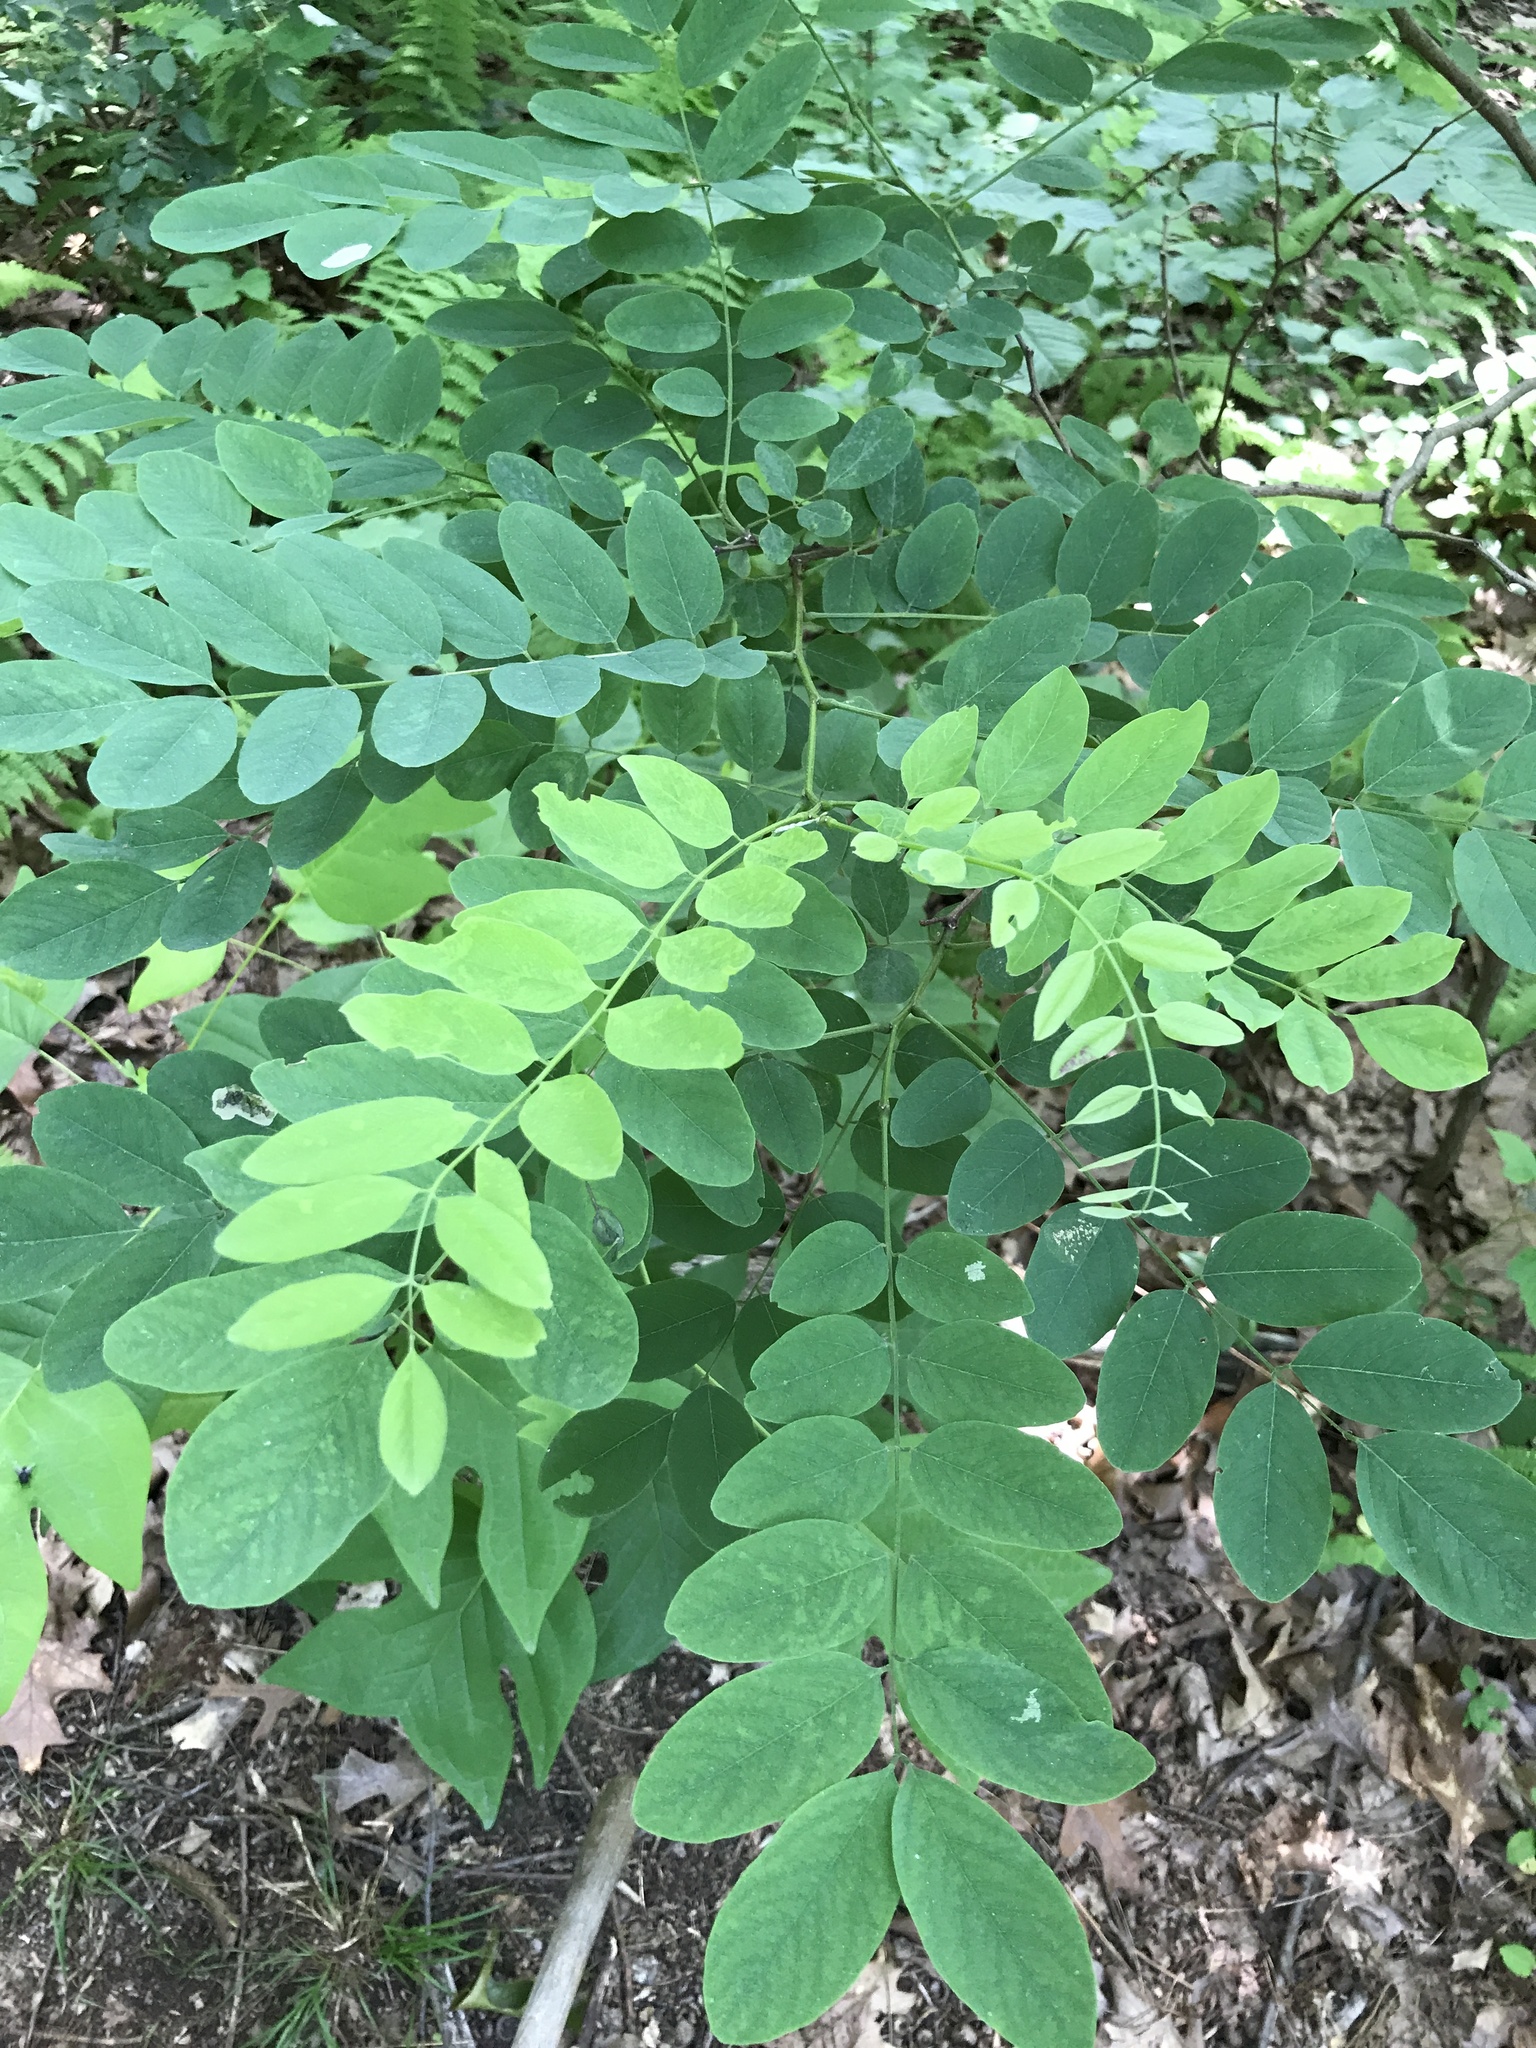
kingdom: Plantae
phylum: Tracheophyta
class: Magnoliopsida
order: Fabales
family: Fabaceae
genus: Robinia
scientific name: Robinia pseudoacacia
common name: Black locust
